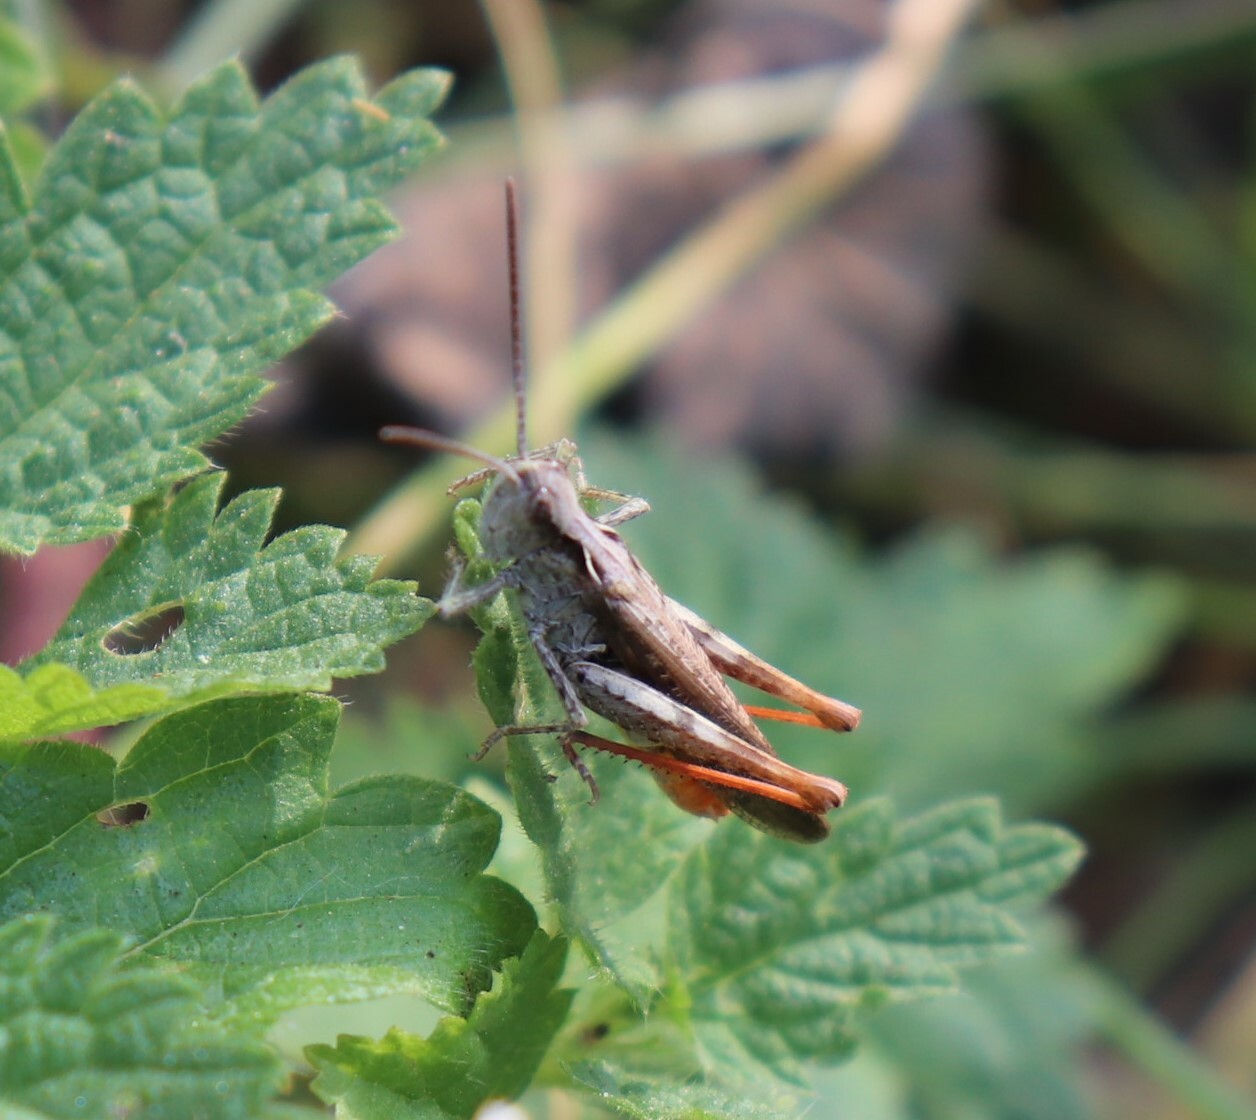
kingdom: Animalia
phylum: Arthropoda
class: Insecta
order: Orthoptera
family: Acrididae
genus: Chorthippus
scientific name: Chorthippus brunneus
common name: Field grasshopper
